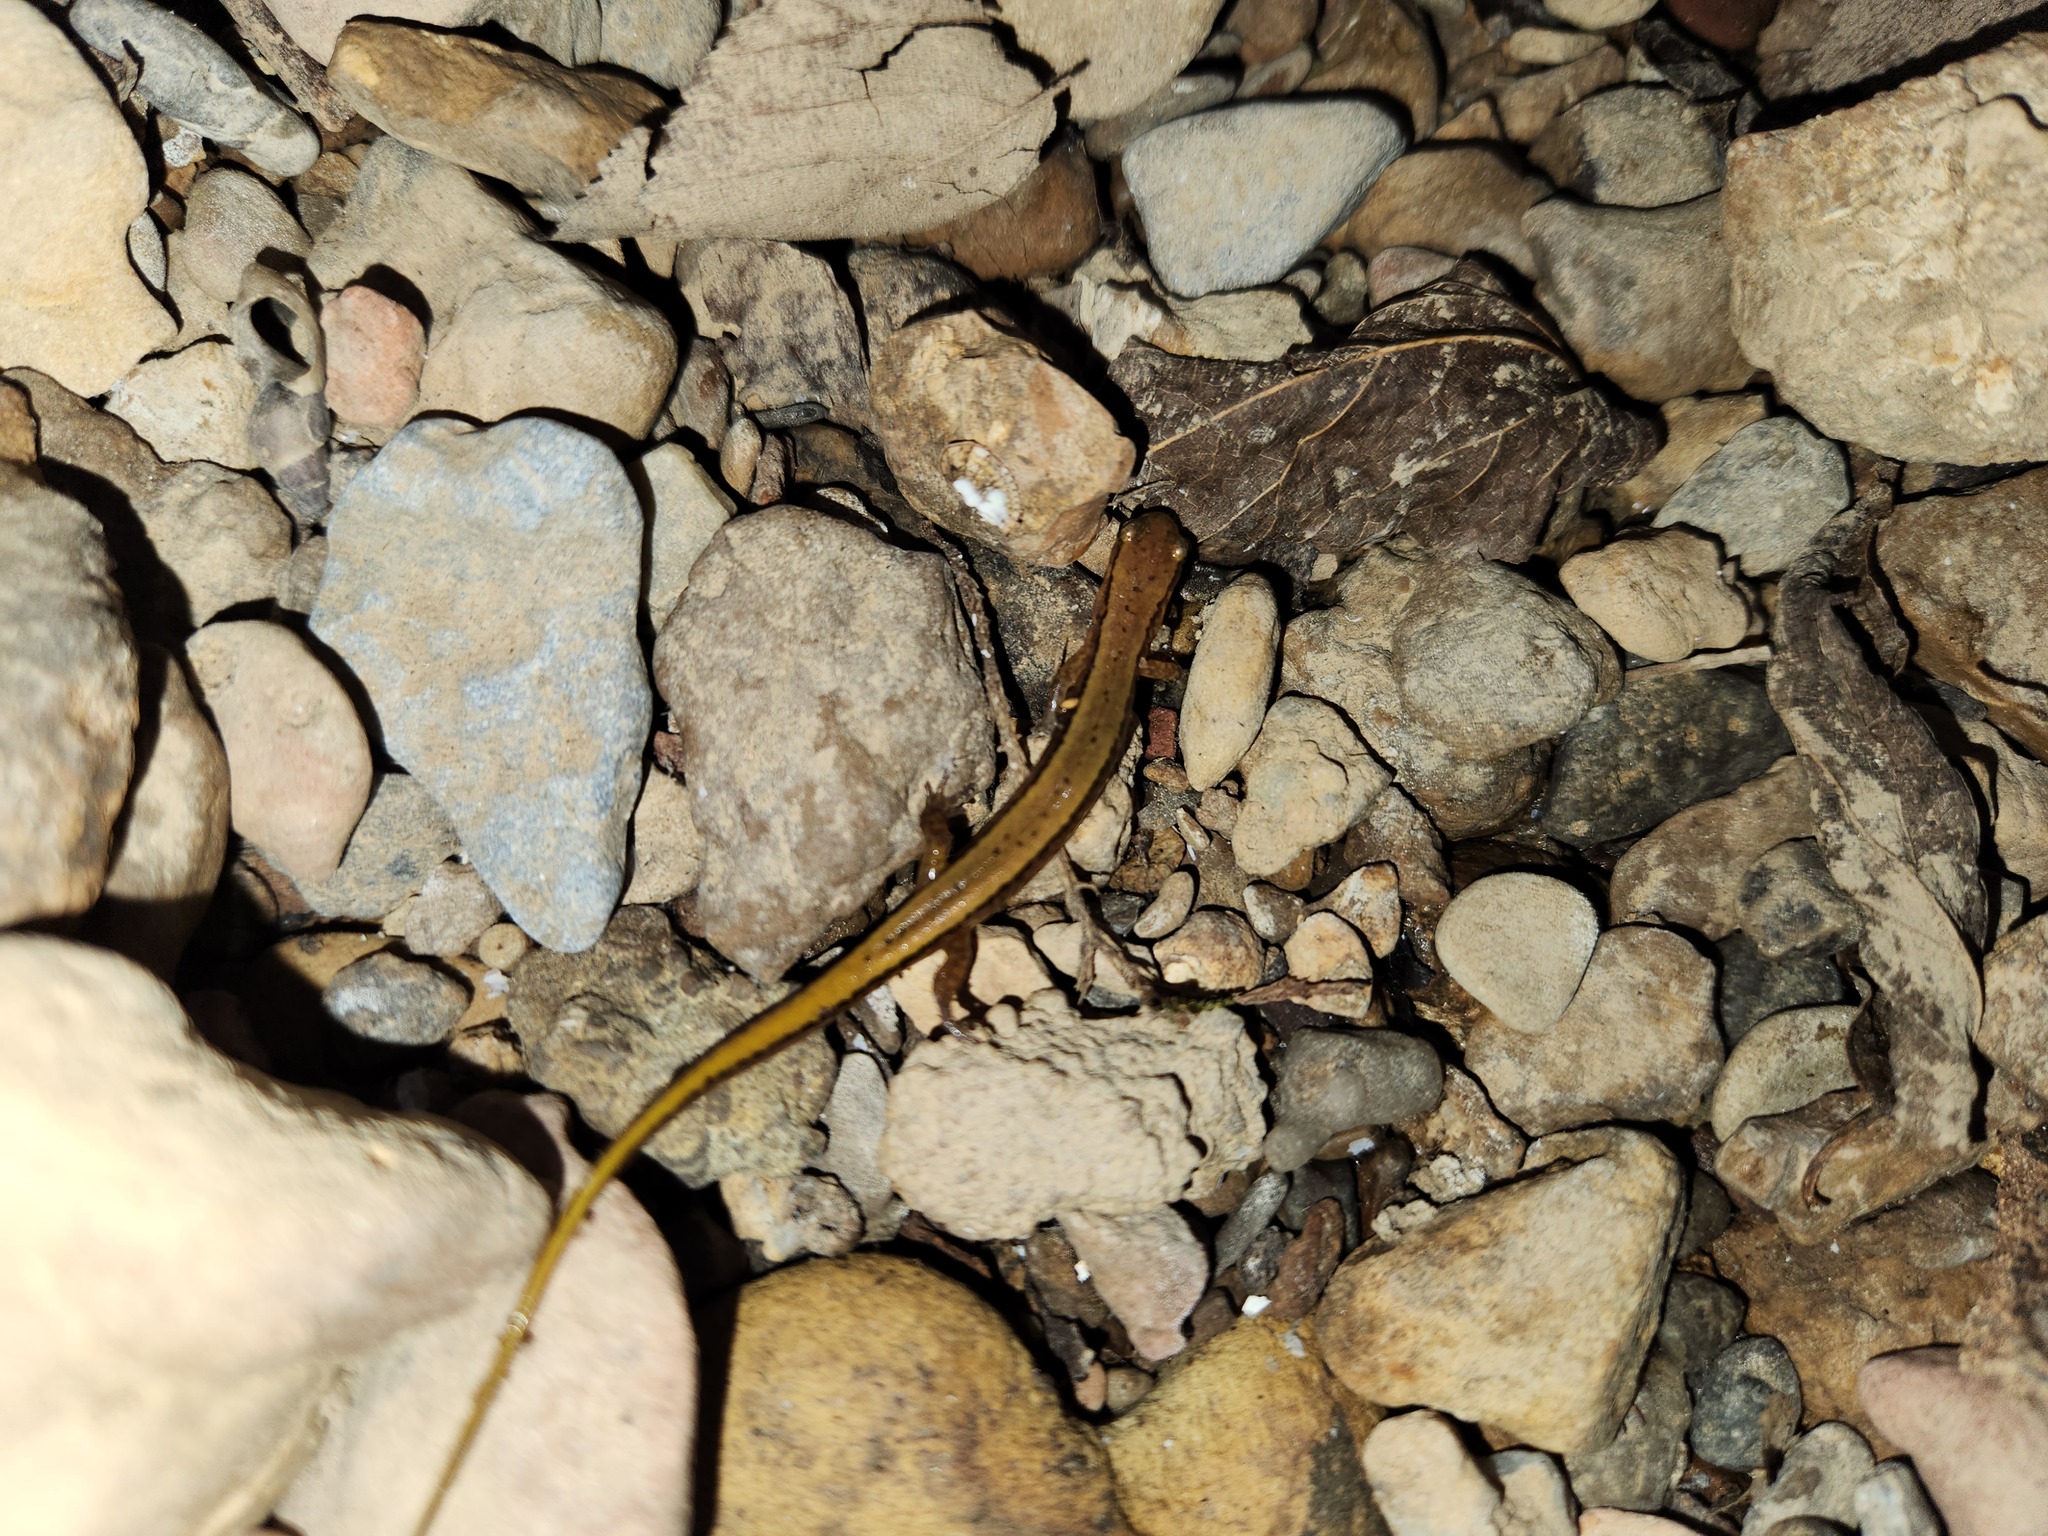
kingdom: Animalia
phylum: Chordata
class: Amphibia
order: Caudata
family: Plethodontidae
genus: Eurycea
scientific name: Eurycea cirrigera
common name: Southern two-lined salamander
